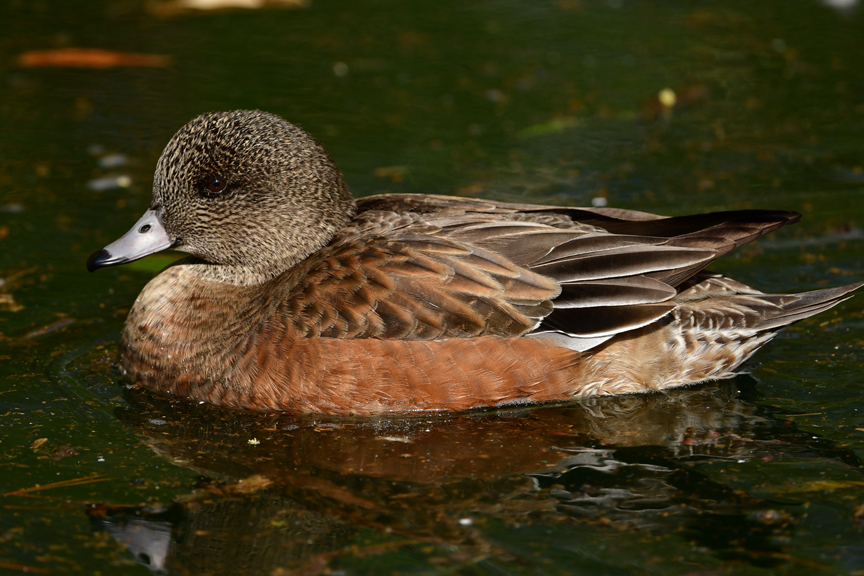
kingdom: Animalia
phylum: Chordata
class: Aves
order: Anseriformes
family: Anatidae
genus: Mareca
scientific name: Mareca americana
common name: American wigeon
